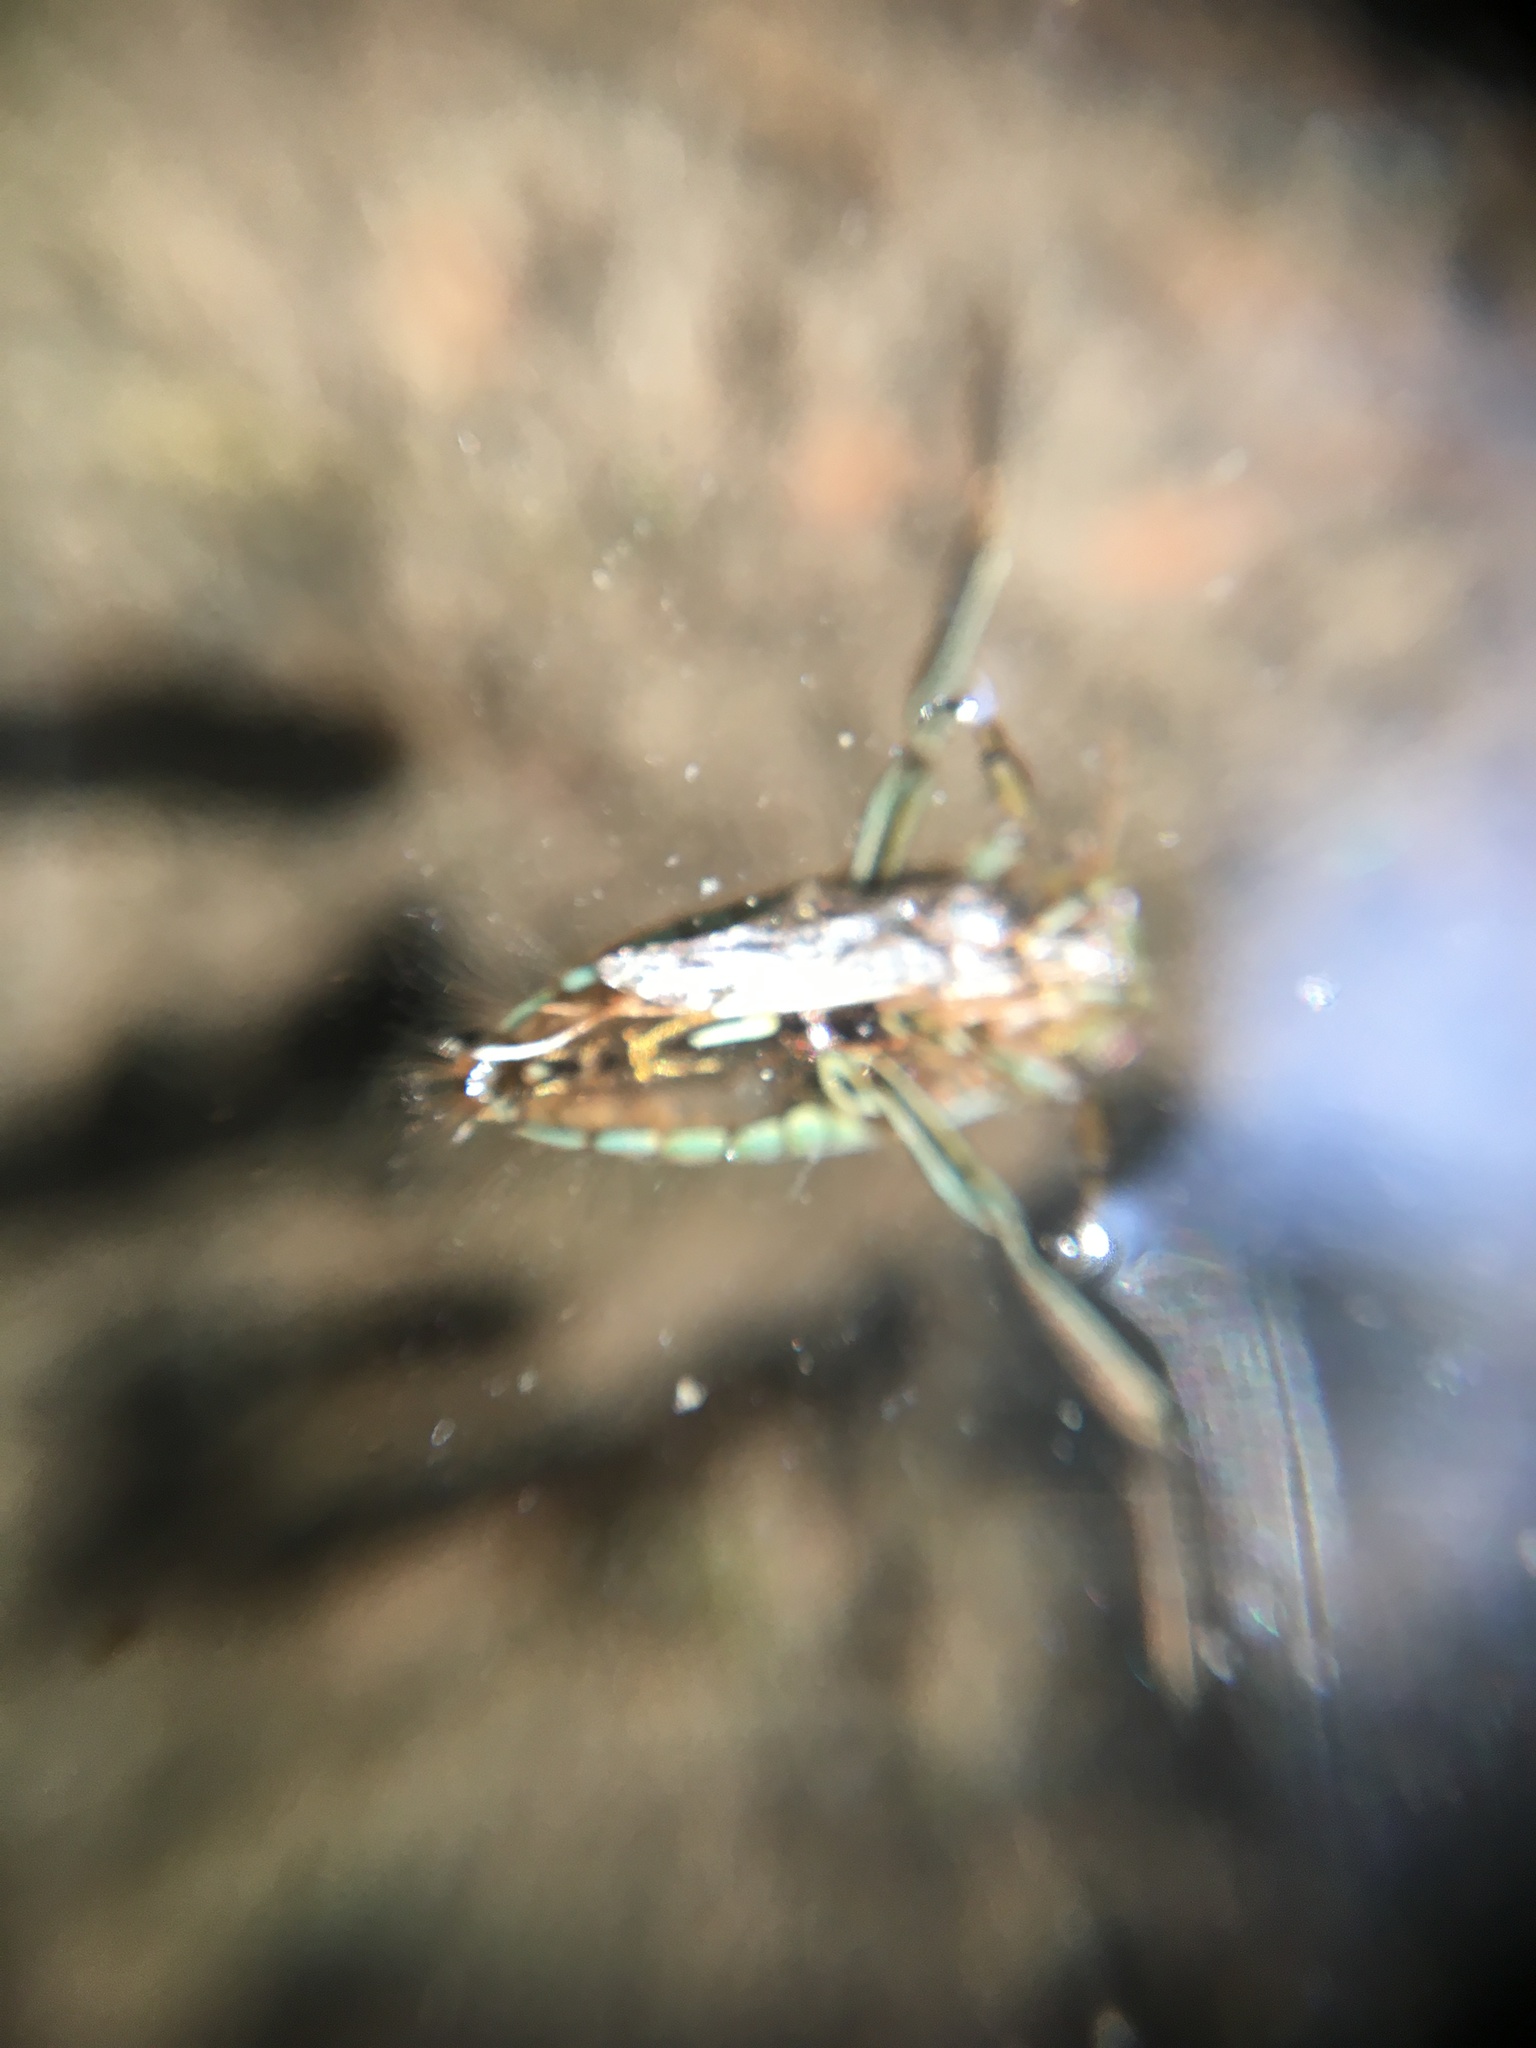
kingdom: Animalia
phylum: Arthropoda
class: Insecta
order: Hemiptera
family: Notonectidae
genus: Notonecta
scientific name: Notonecta
